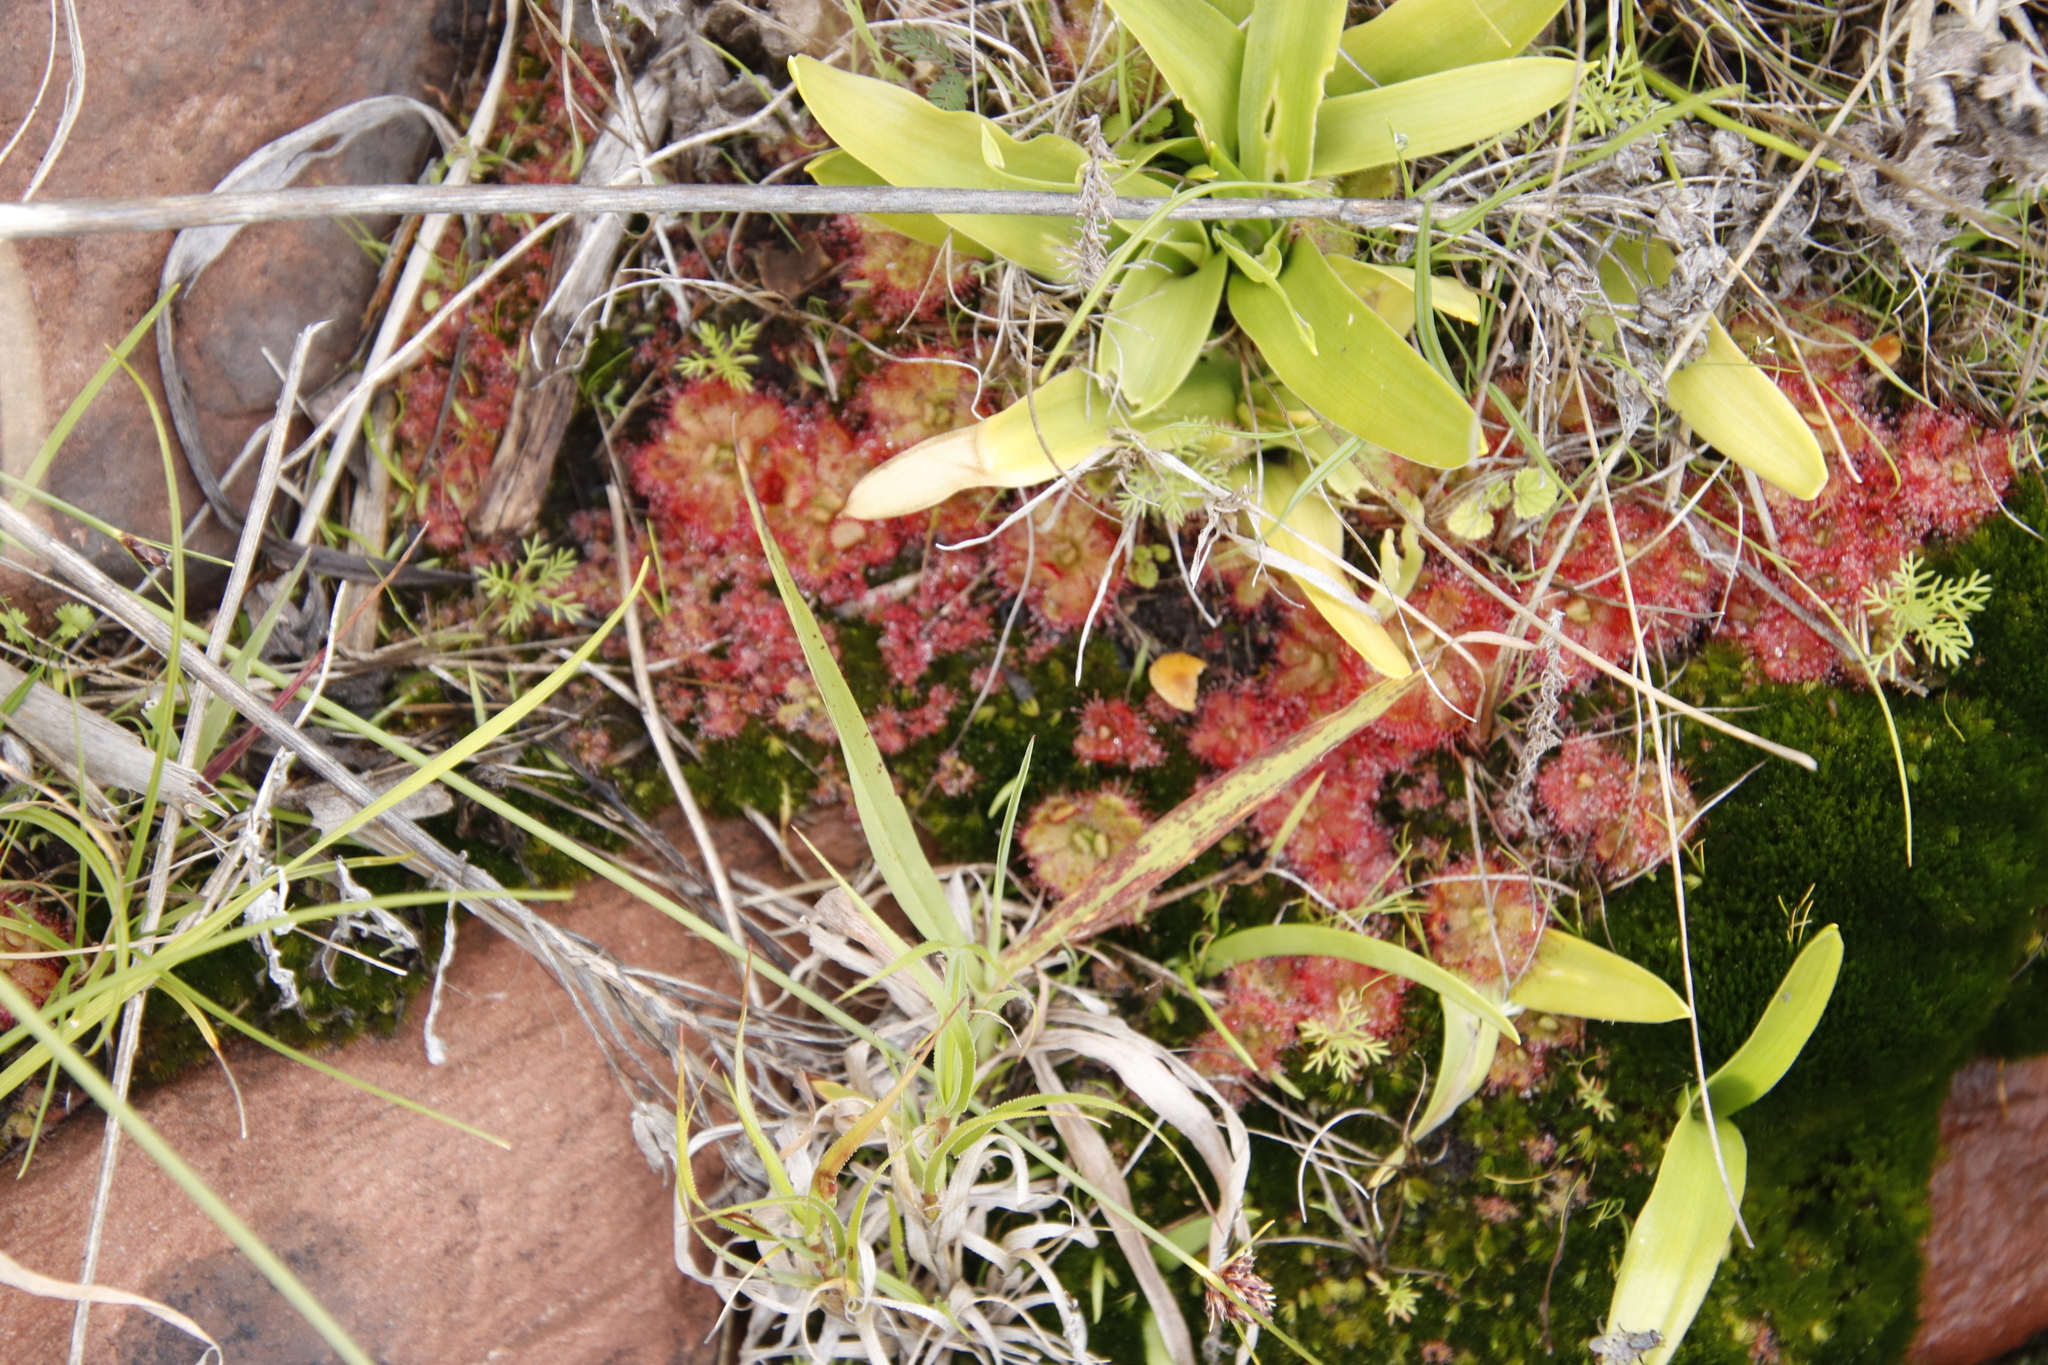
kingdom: Plantae
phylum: Tracheophyta
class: Magnoliopsida
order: Caryophyllales
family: Droseraceae
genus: Drosera
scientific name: Drosera trinervia
